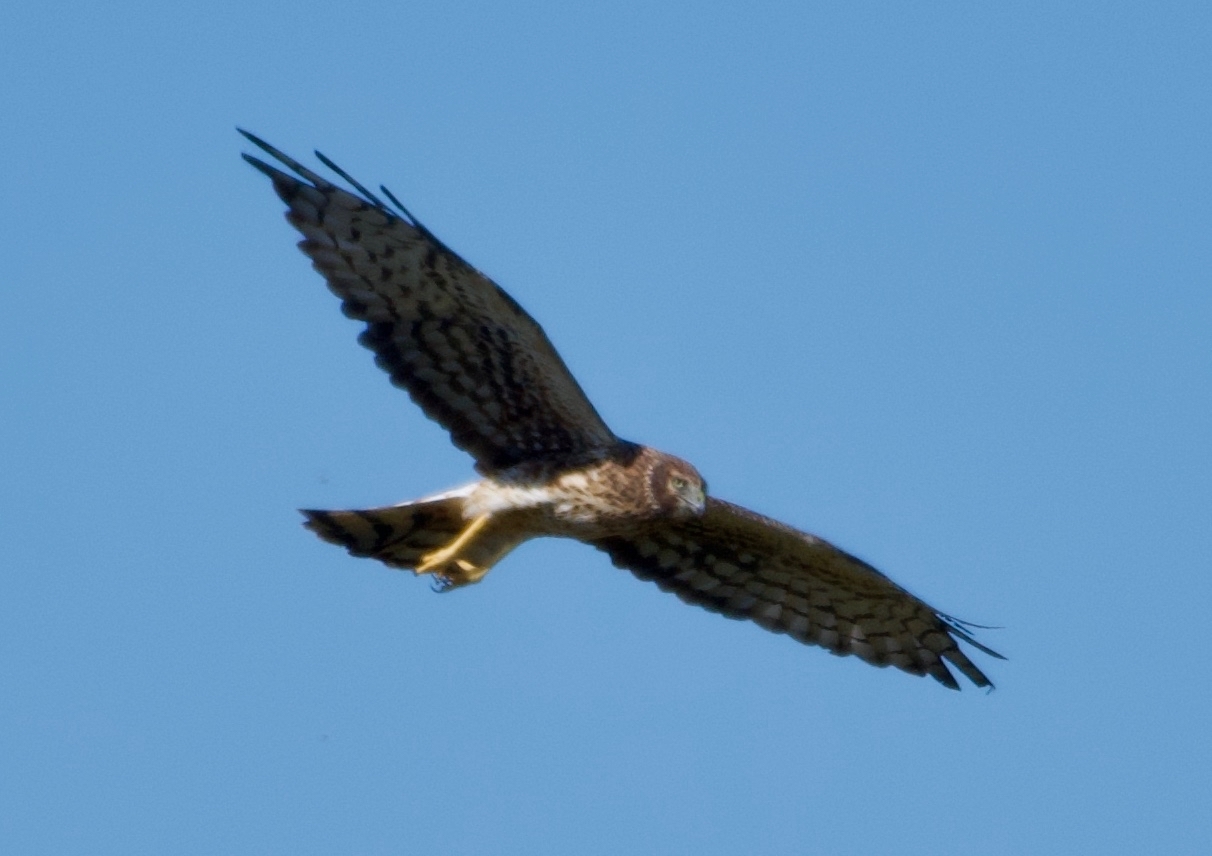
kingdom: Animalia
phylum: Chordata
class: Aves
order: Accipitriformes
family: Accipitridae
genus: Circus
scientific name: Circus cyaneus
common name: Hen harrier
